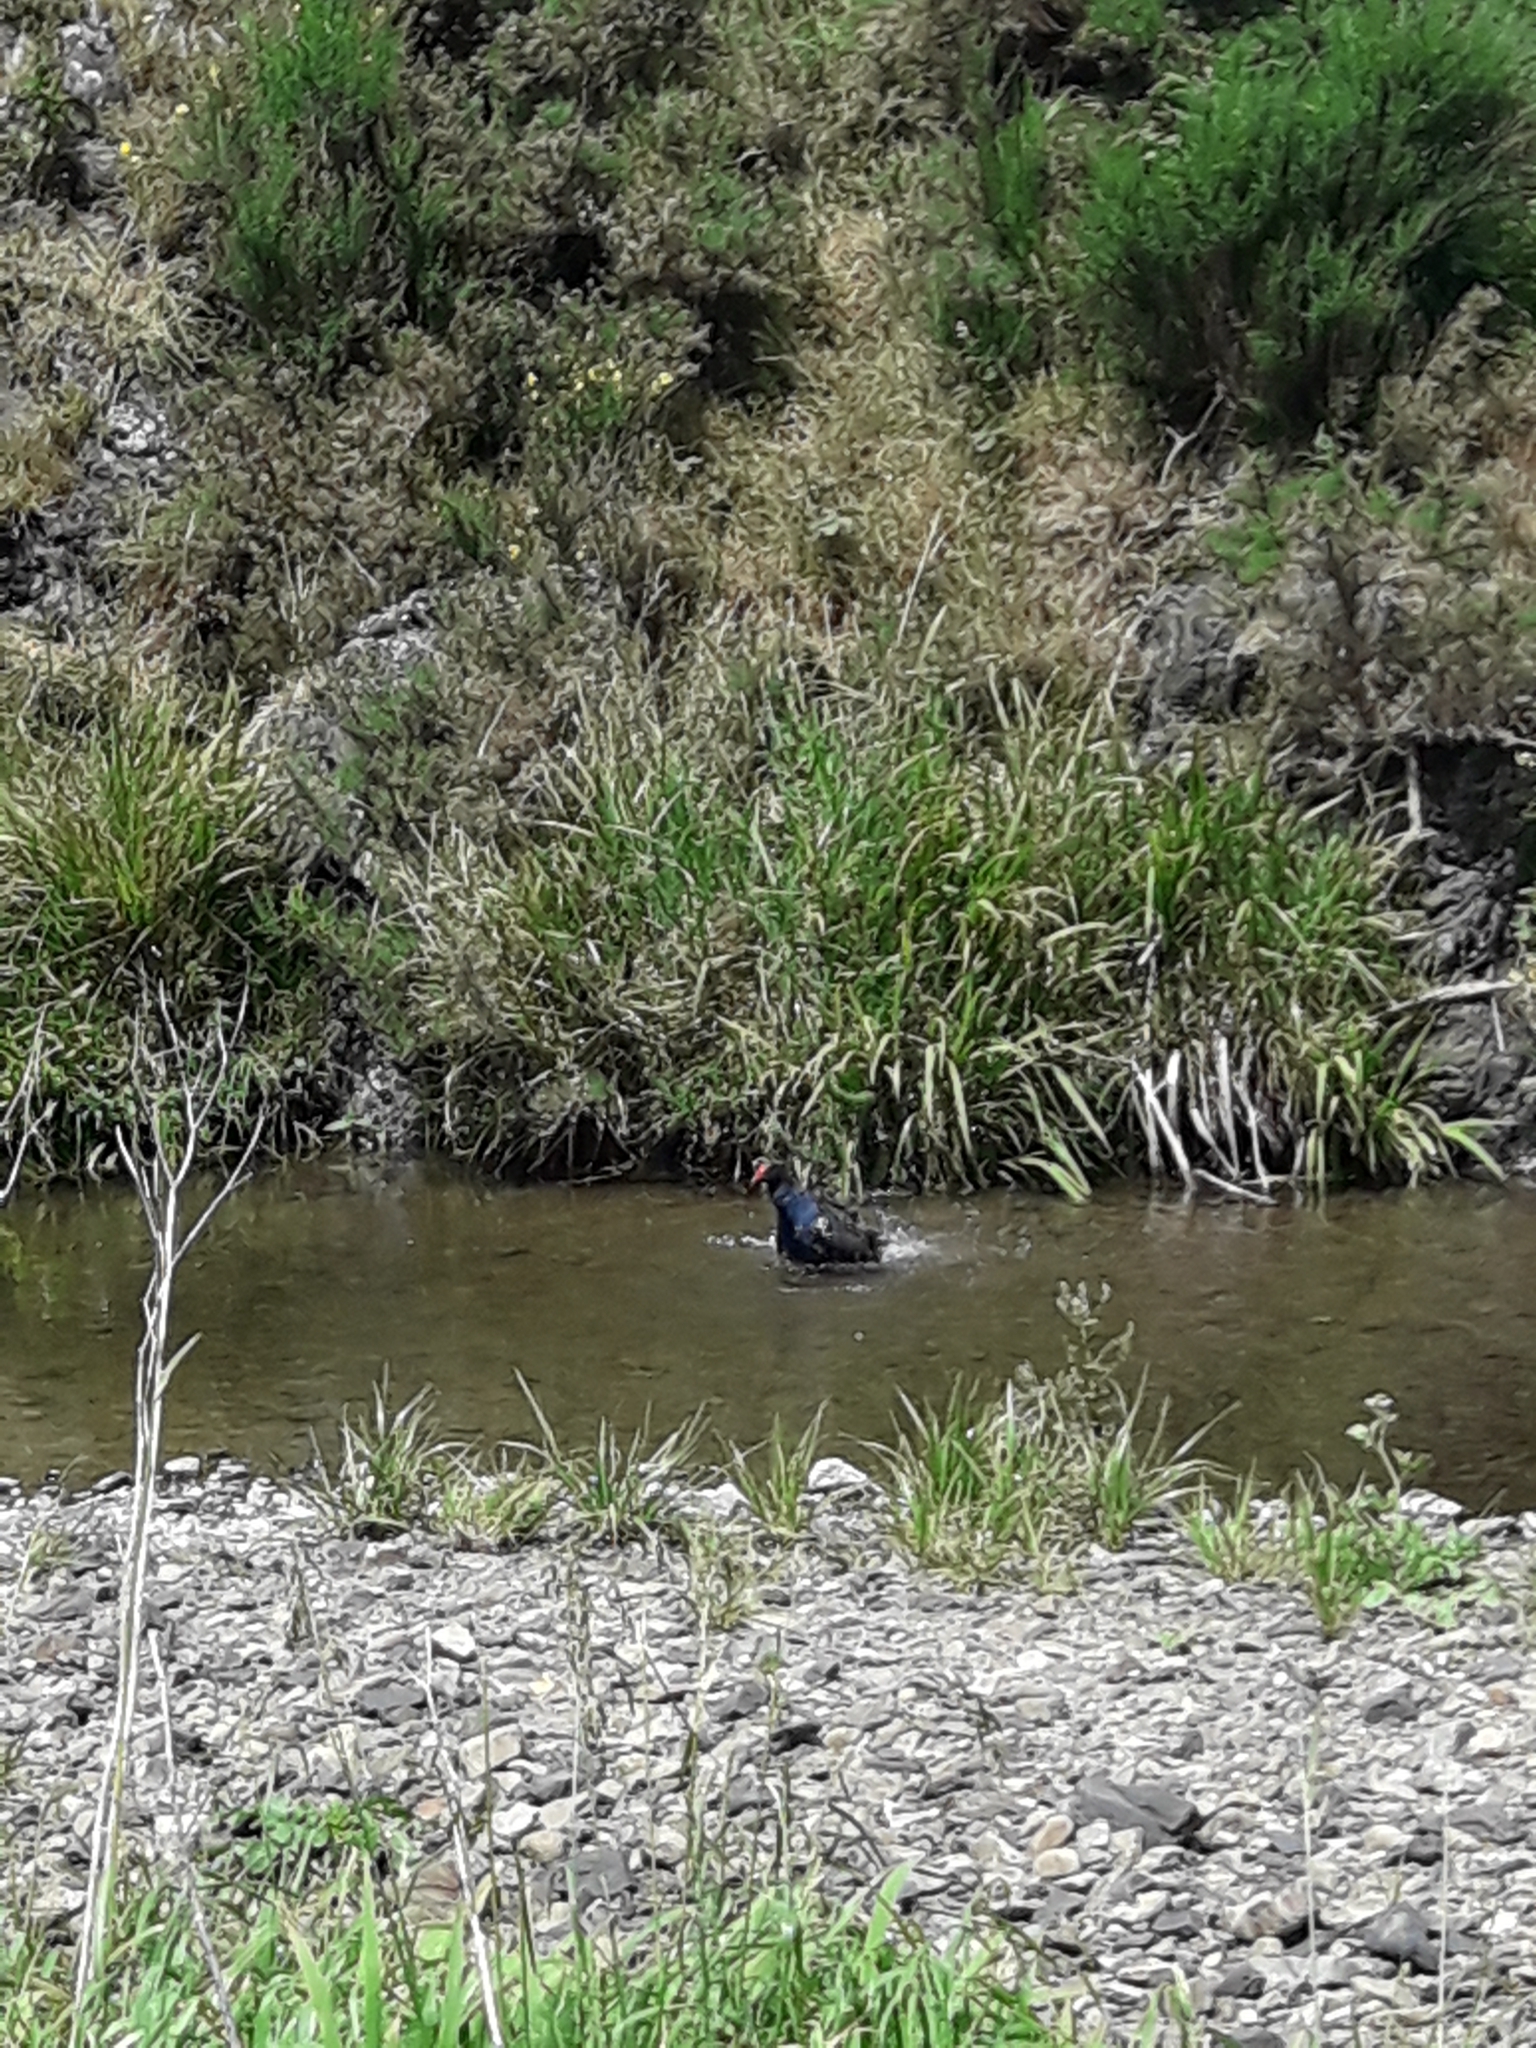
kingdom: Animalia
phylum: Chordata
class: Aves
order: Gruiformes
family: Rallidae
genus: Porphyrio
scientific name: Porphyrio melanotus
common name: Australasian swamphen
